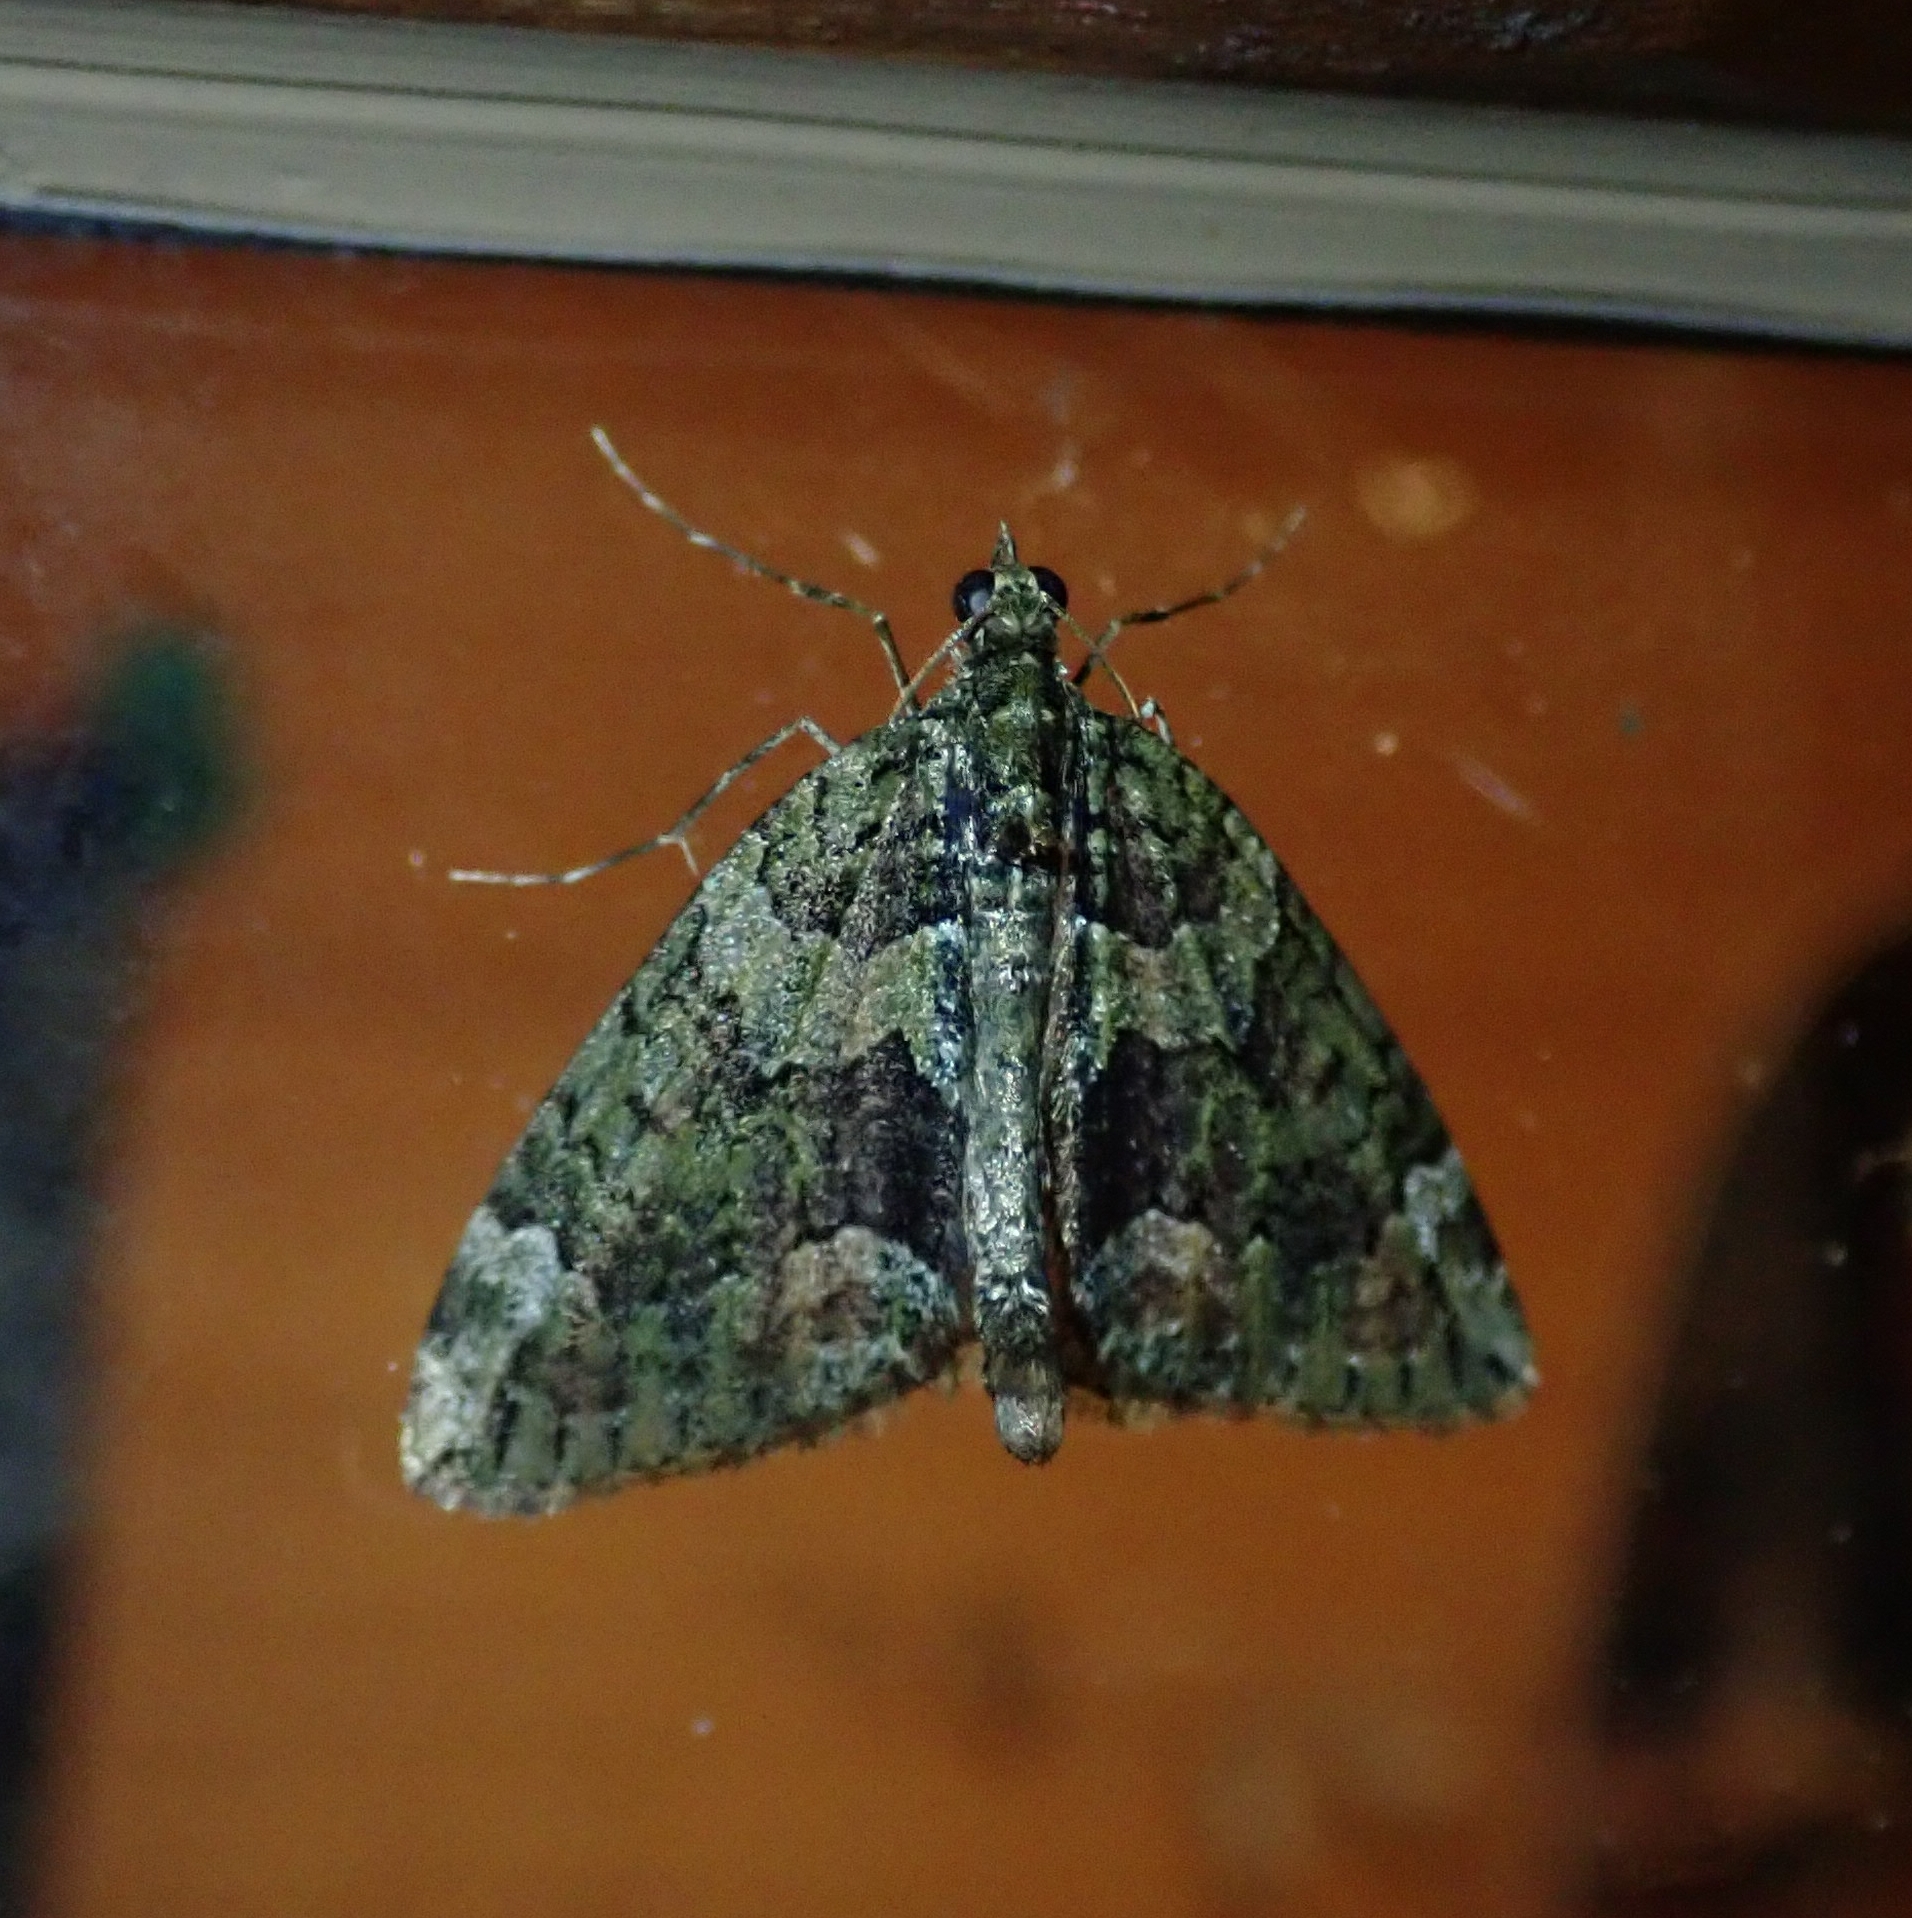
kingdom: Animalia
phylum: Arthropoda
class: Insecta
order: Lepidoptera
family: Geometridae
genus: Chloroclysta
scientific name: Chloroclysta siterata
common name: Red-green carpet
